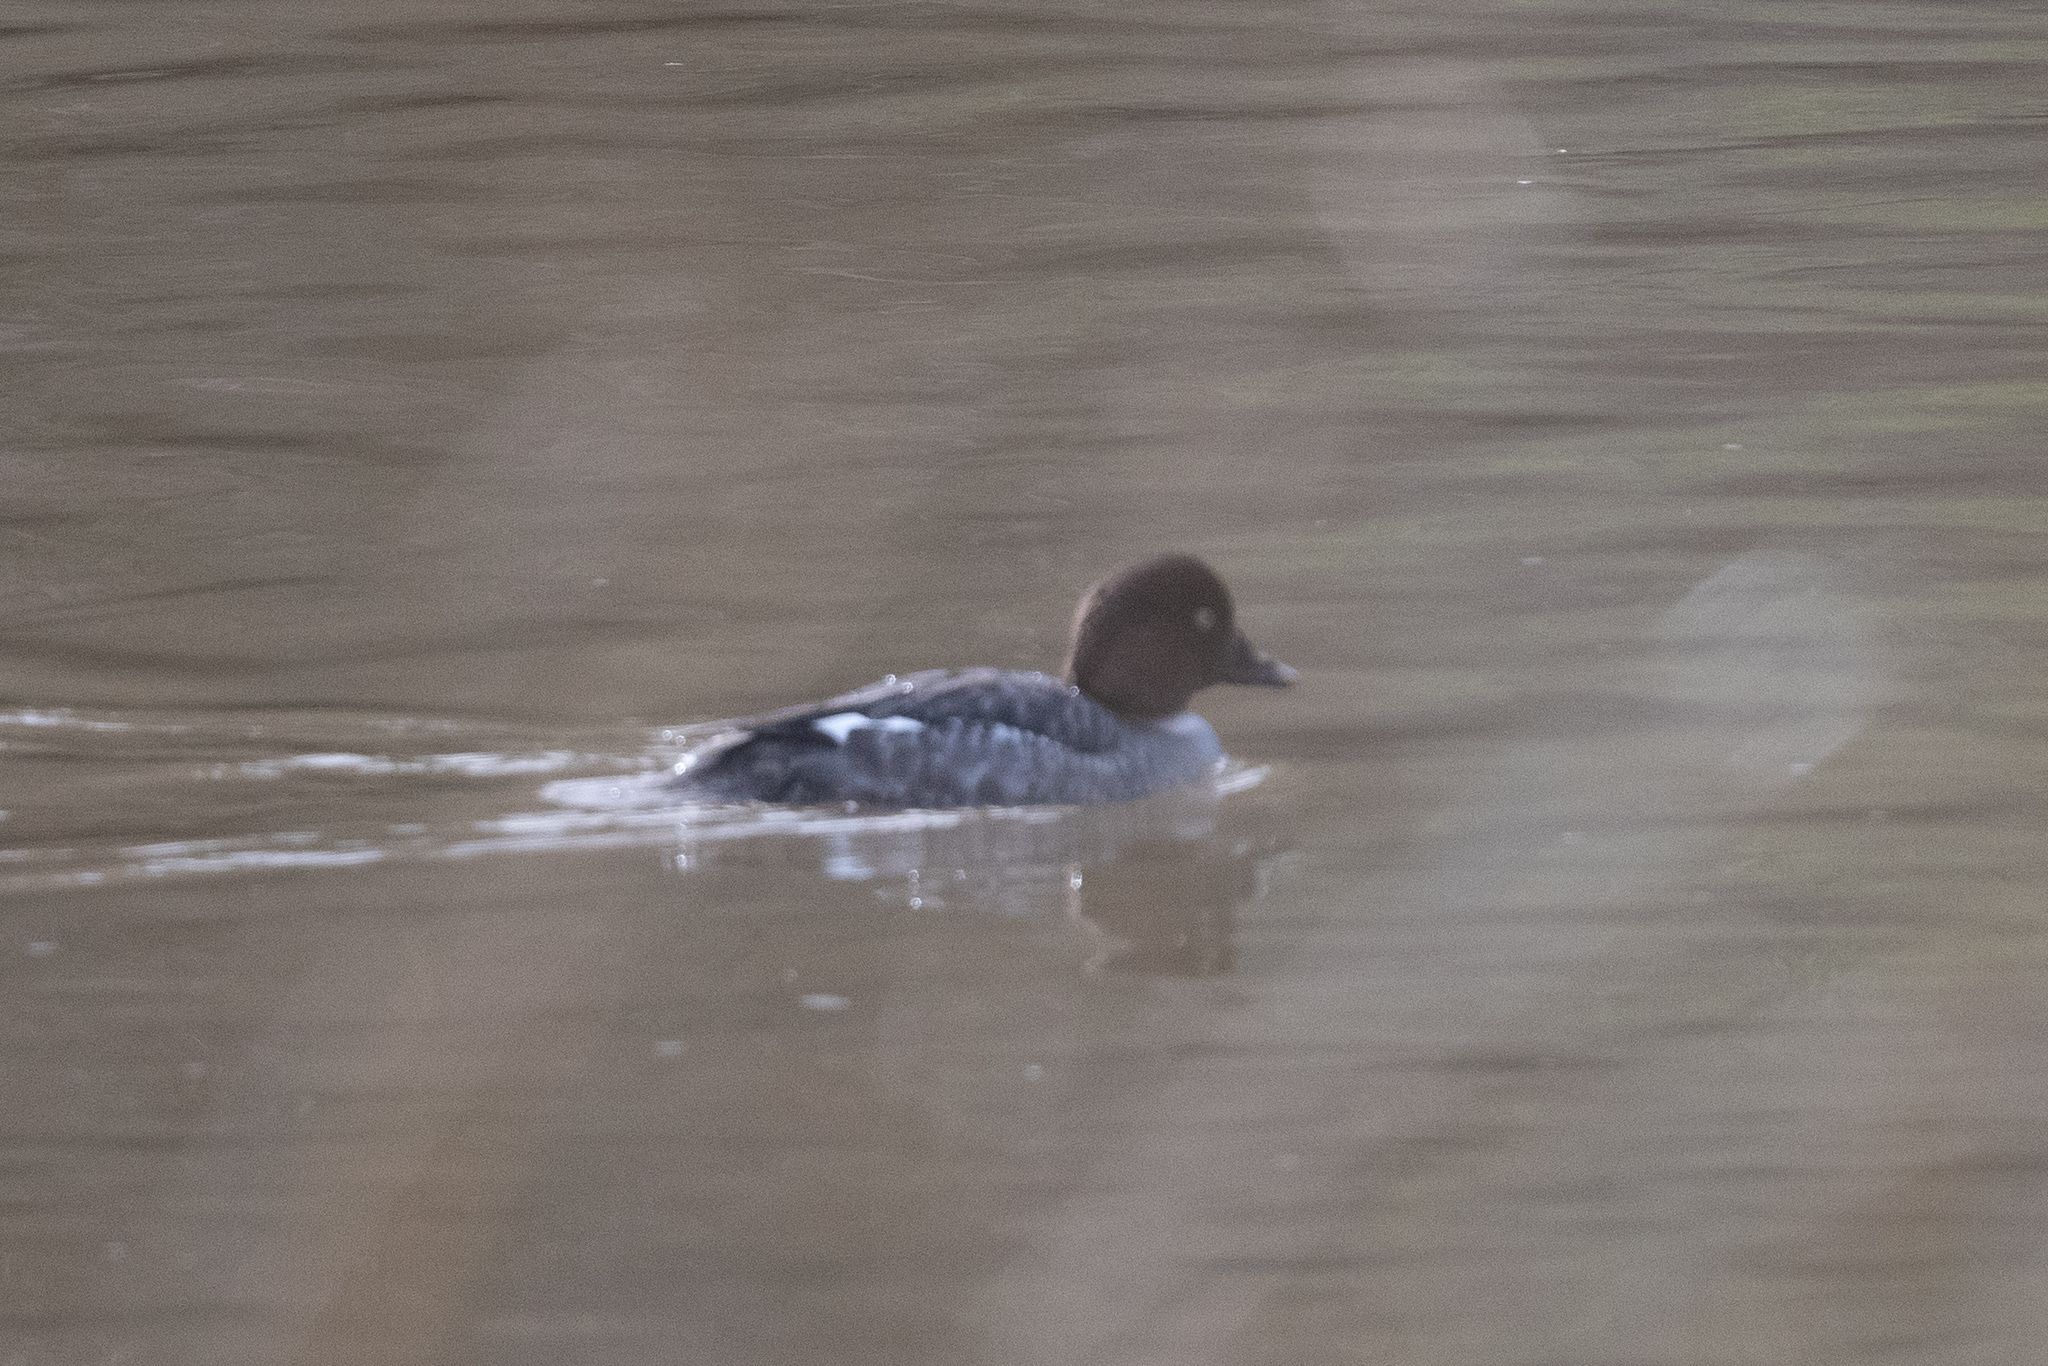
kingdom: Animalia
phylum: Chordata
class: Aves
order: Anseriformes
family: Anatidae
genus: Bucephala
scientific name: Bucephala clangula
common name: Common goldeneye
